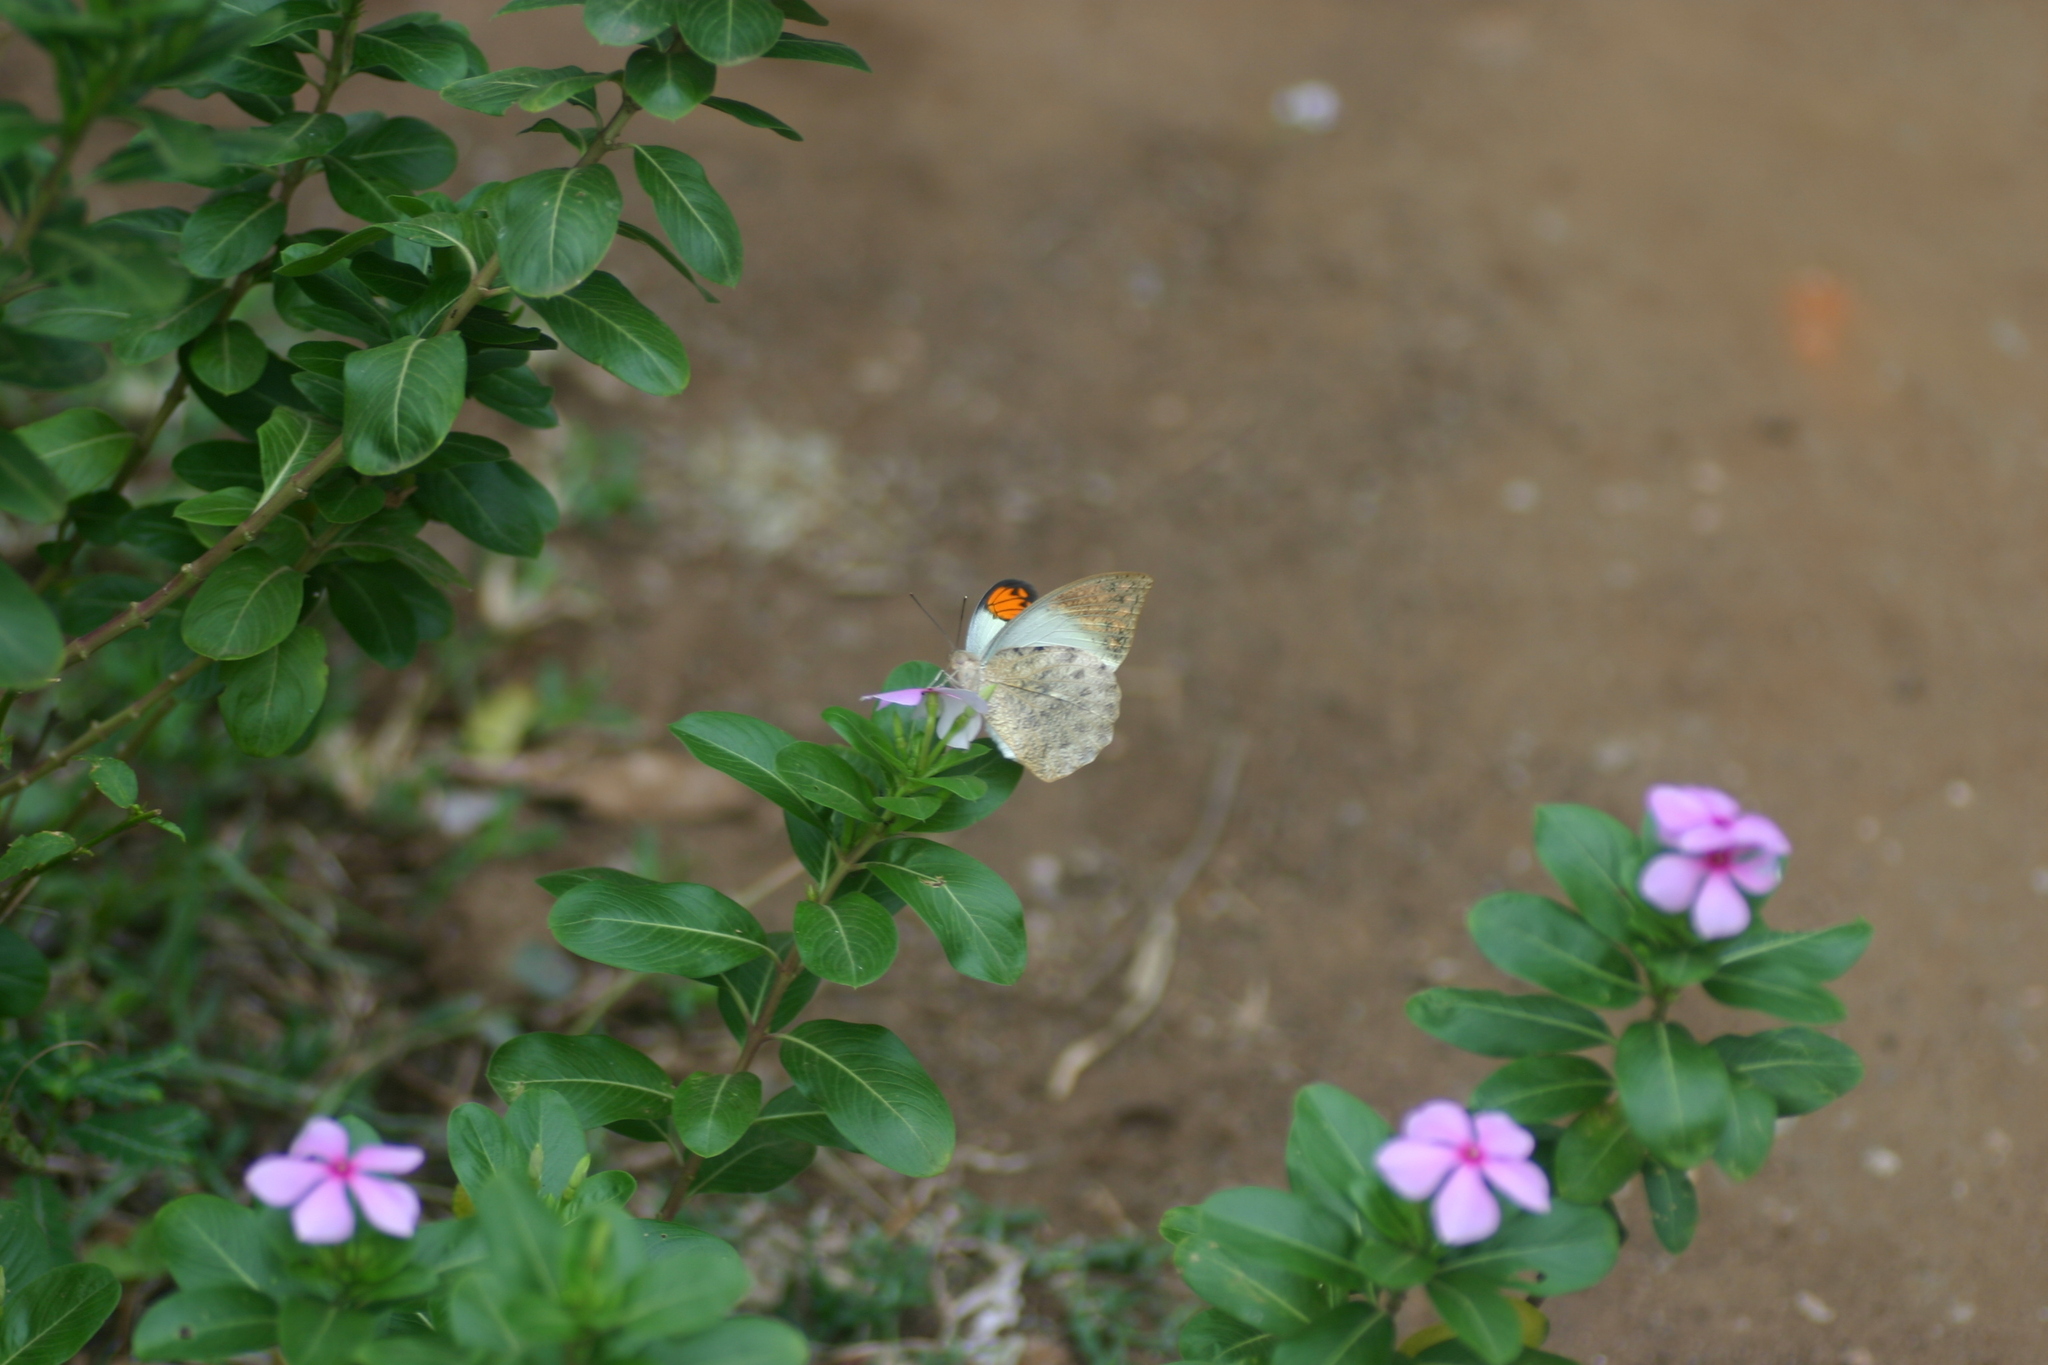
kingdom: Animalia
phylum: Arthropoda
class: Insecta
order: Lepidoptera
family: Pieridae
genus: Hebomoia
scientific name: Hebomoia glaucippe
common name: Great orange tip
